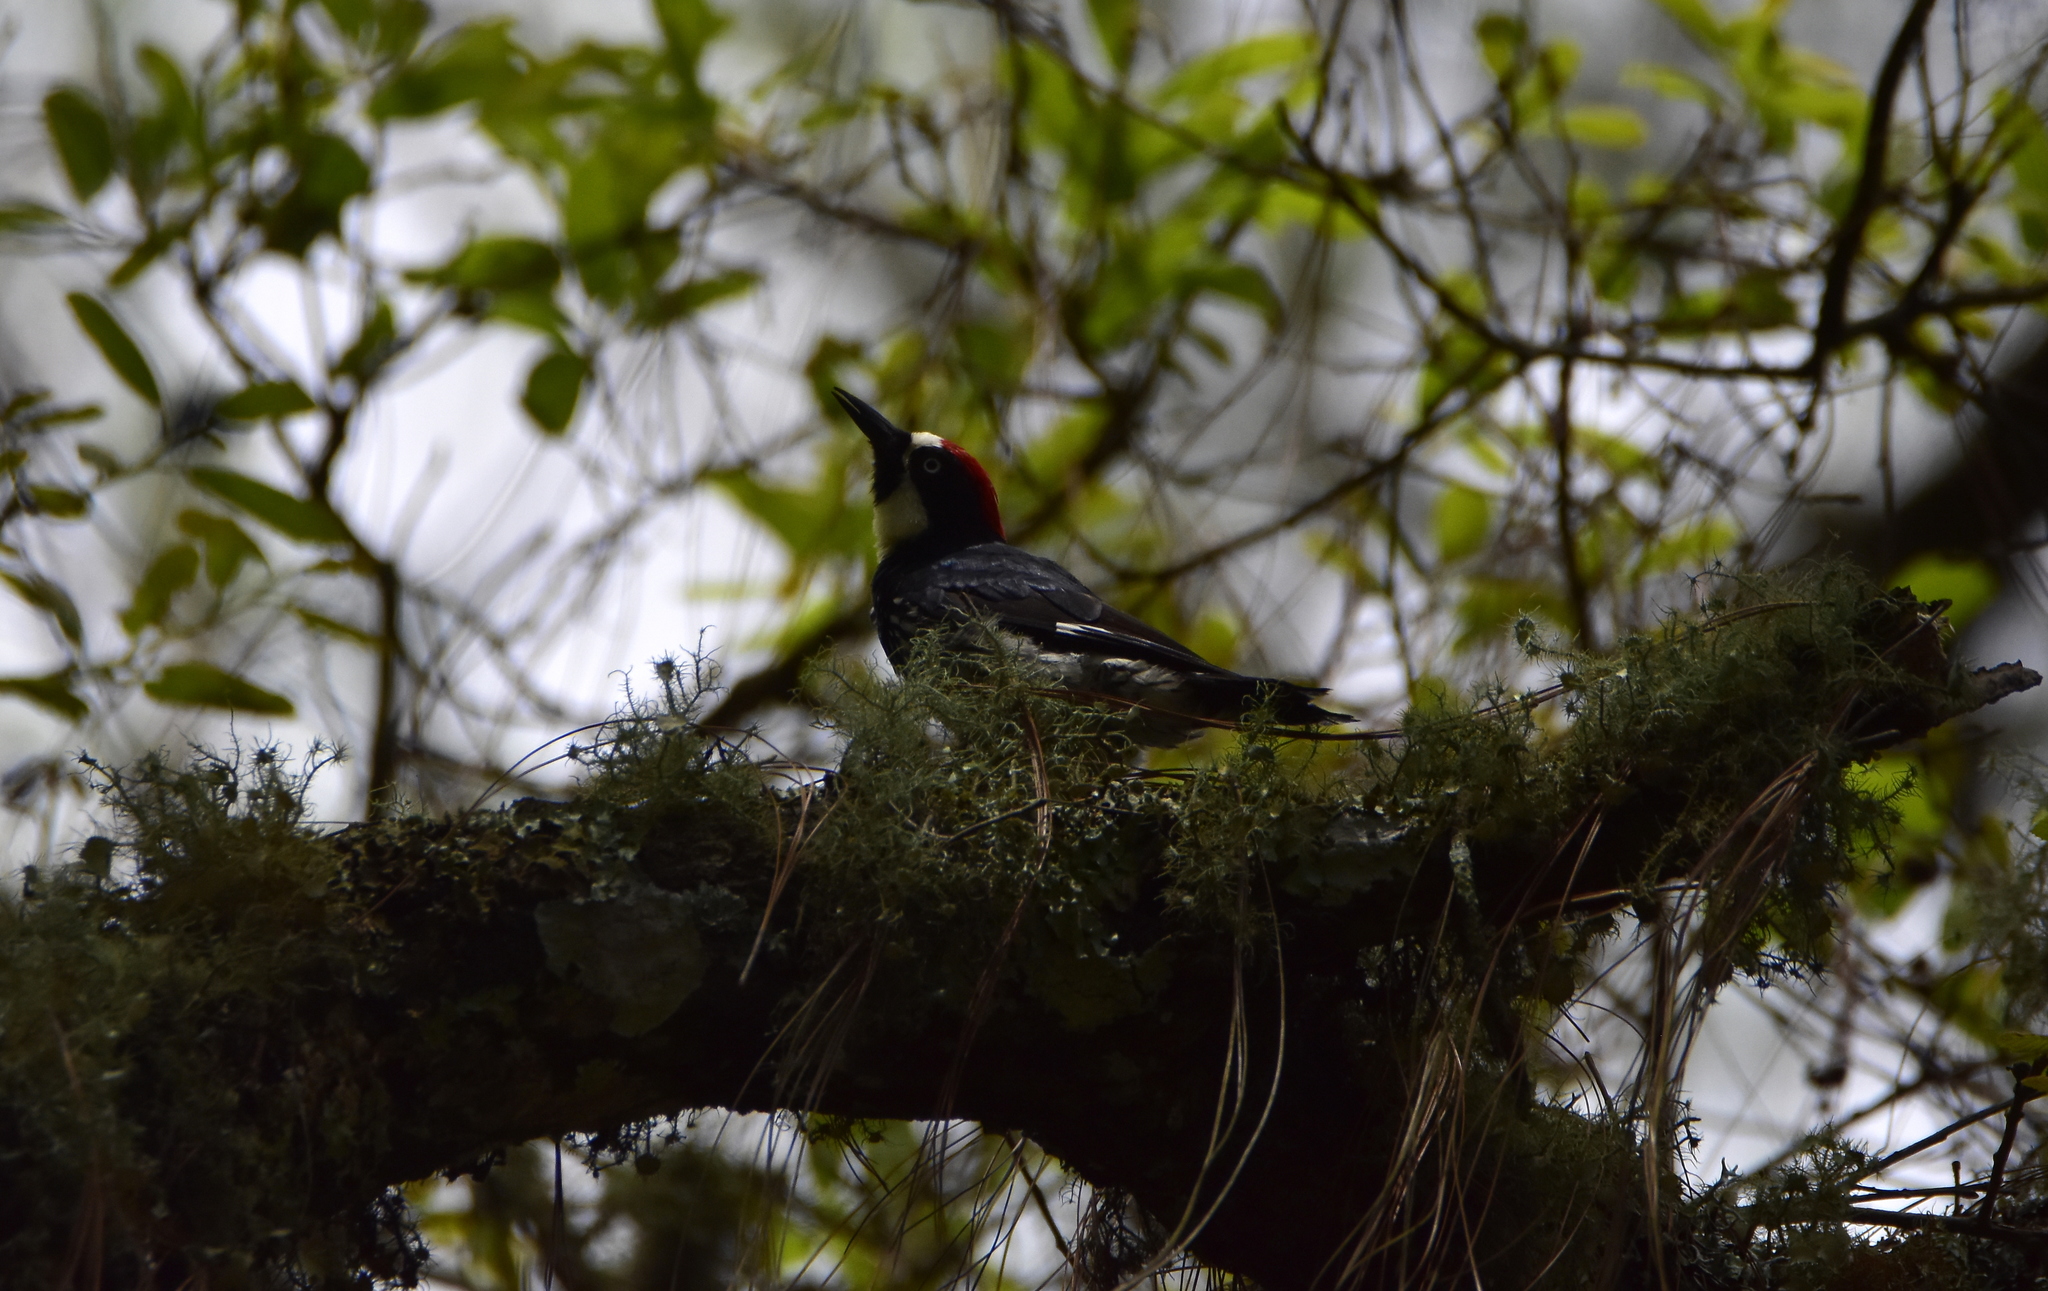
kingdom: Animalia
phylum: Chordata
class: Aves
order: Piciformes
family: Picidae
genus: Melanerpes
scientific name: Melanerpes formicivorus
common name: Acorn woodpecker
